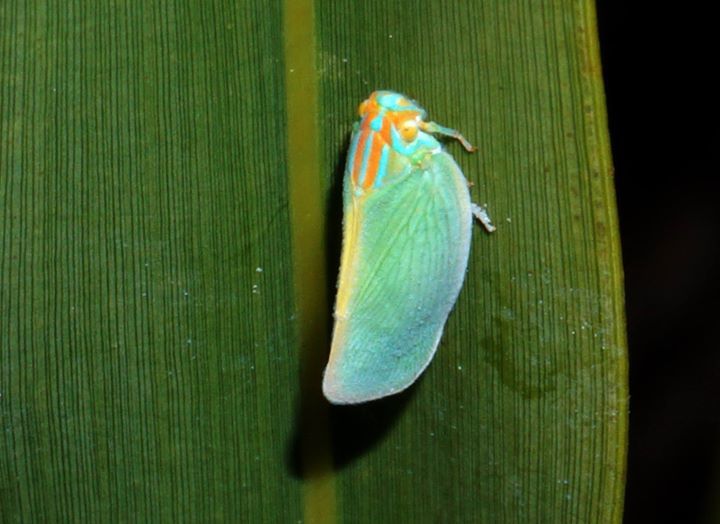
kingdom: Animalia
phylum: Arthropoda
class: Insecta
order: Hemiptera
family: Flatidae
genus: Ormenaria
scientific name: Ormenaria rufifascia
